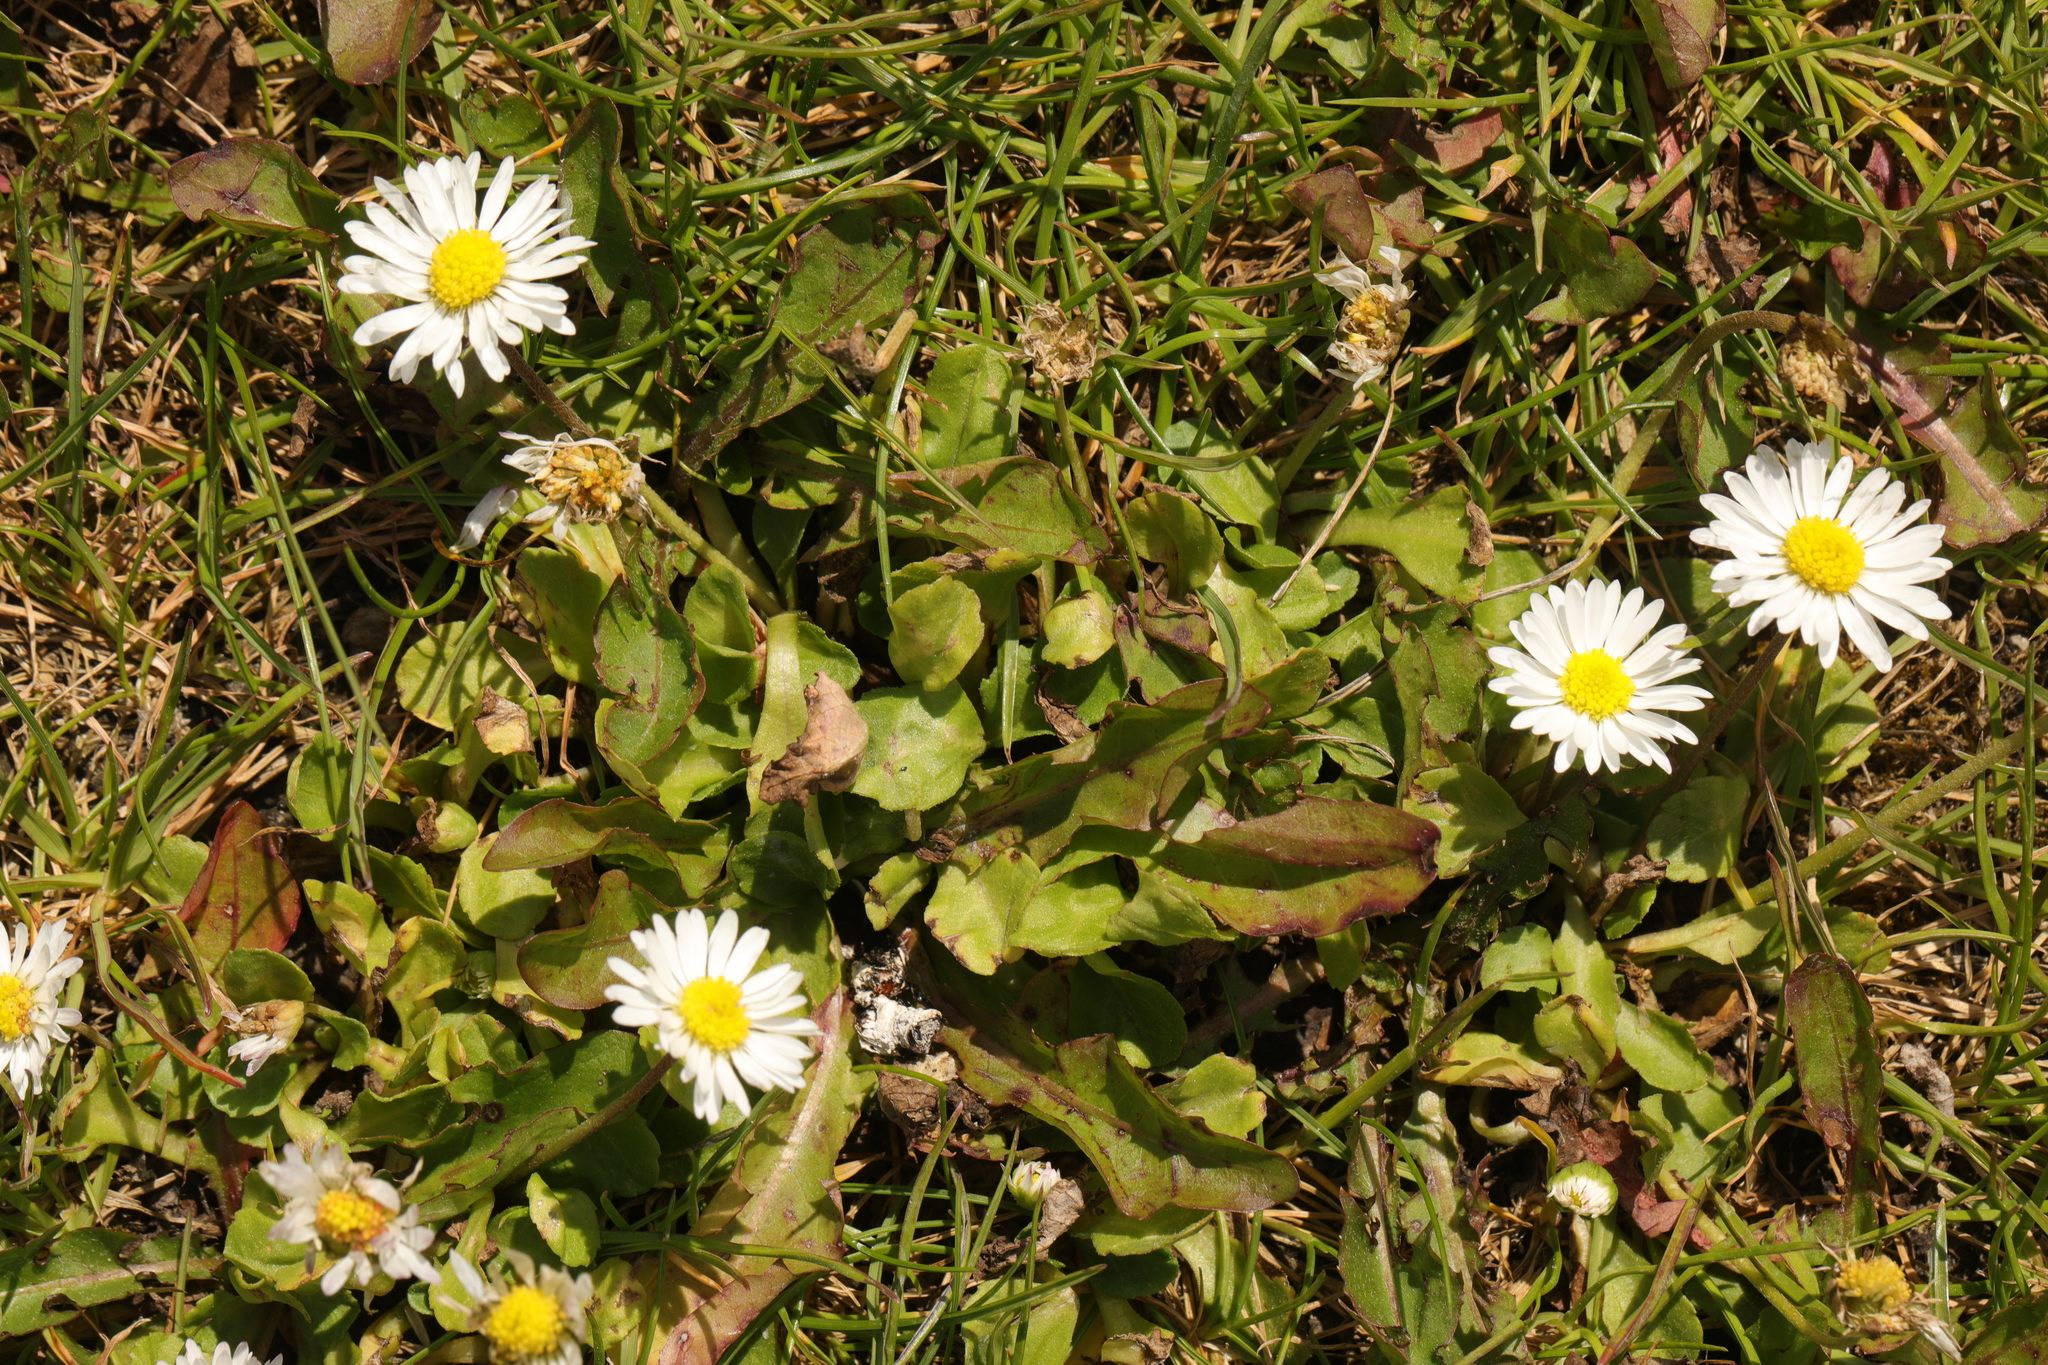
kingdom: Plantae
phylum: Tracheophyta
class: Magnoliopsida
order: Asterales
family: Asteraceae
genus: Bellis
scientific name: Bellis perennis
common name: Lawndaisy
